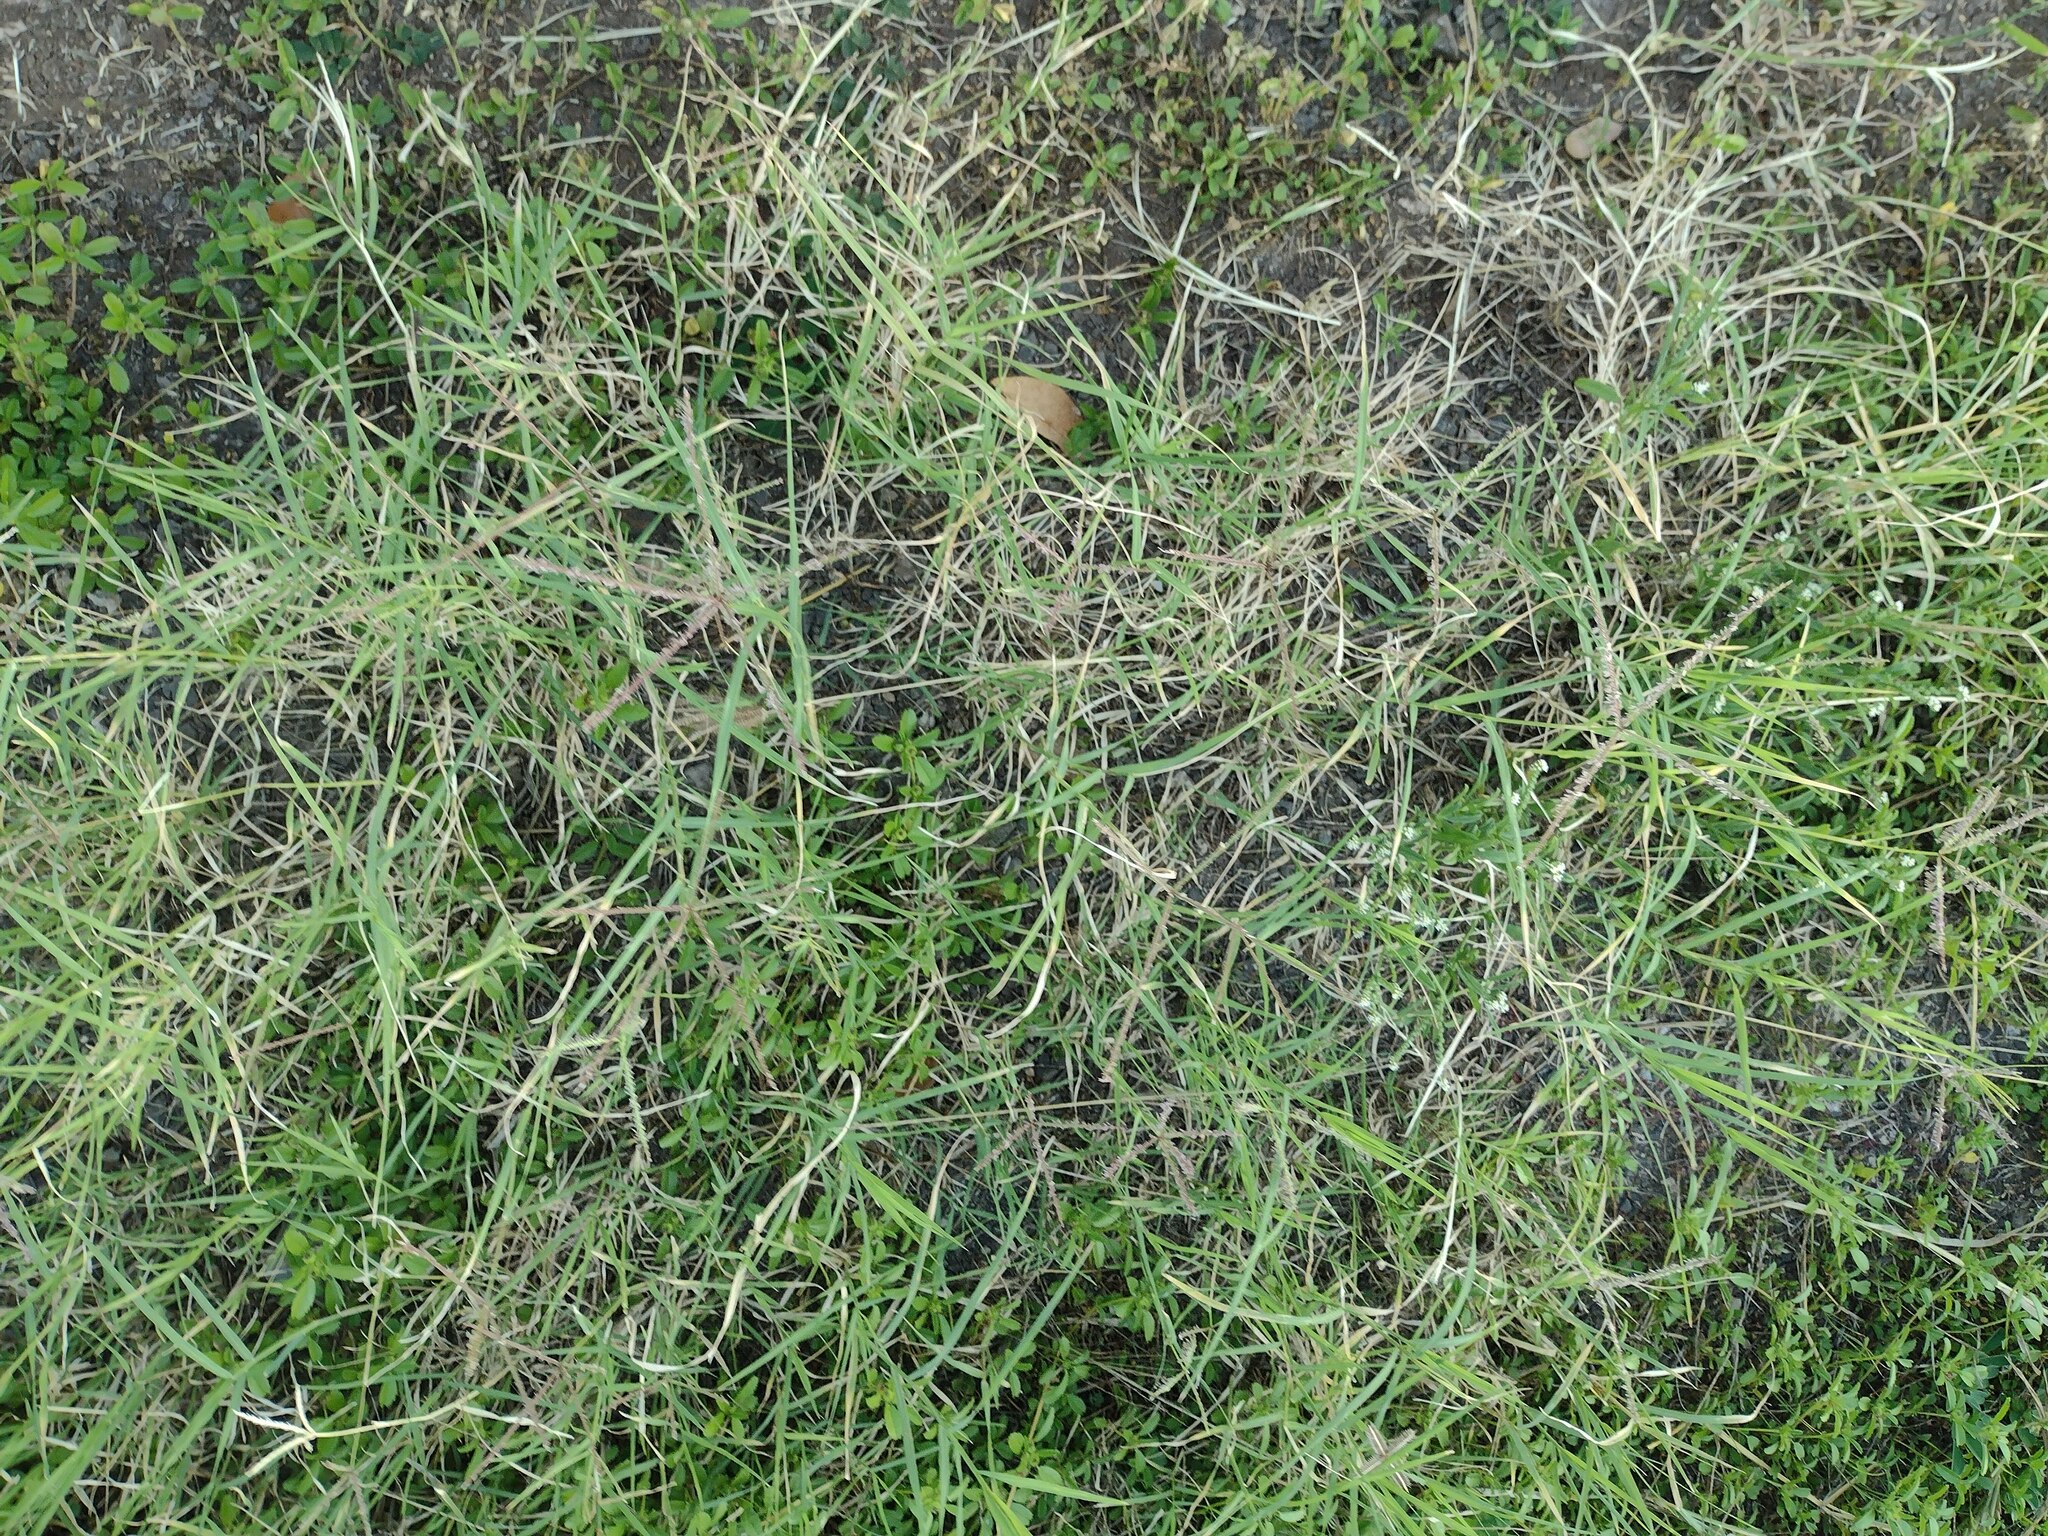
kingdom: Plantae
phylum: Tracheophyta
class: Liliopsida
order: Poales
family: Poaceae
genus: Cynodon
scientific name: Cynodon dactylon
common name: Bermuda grass
